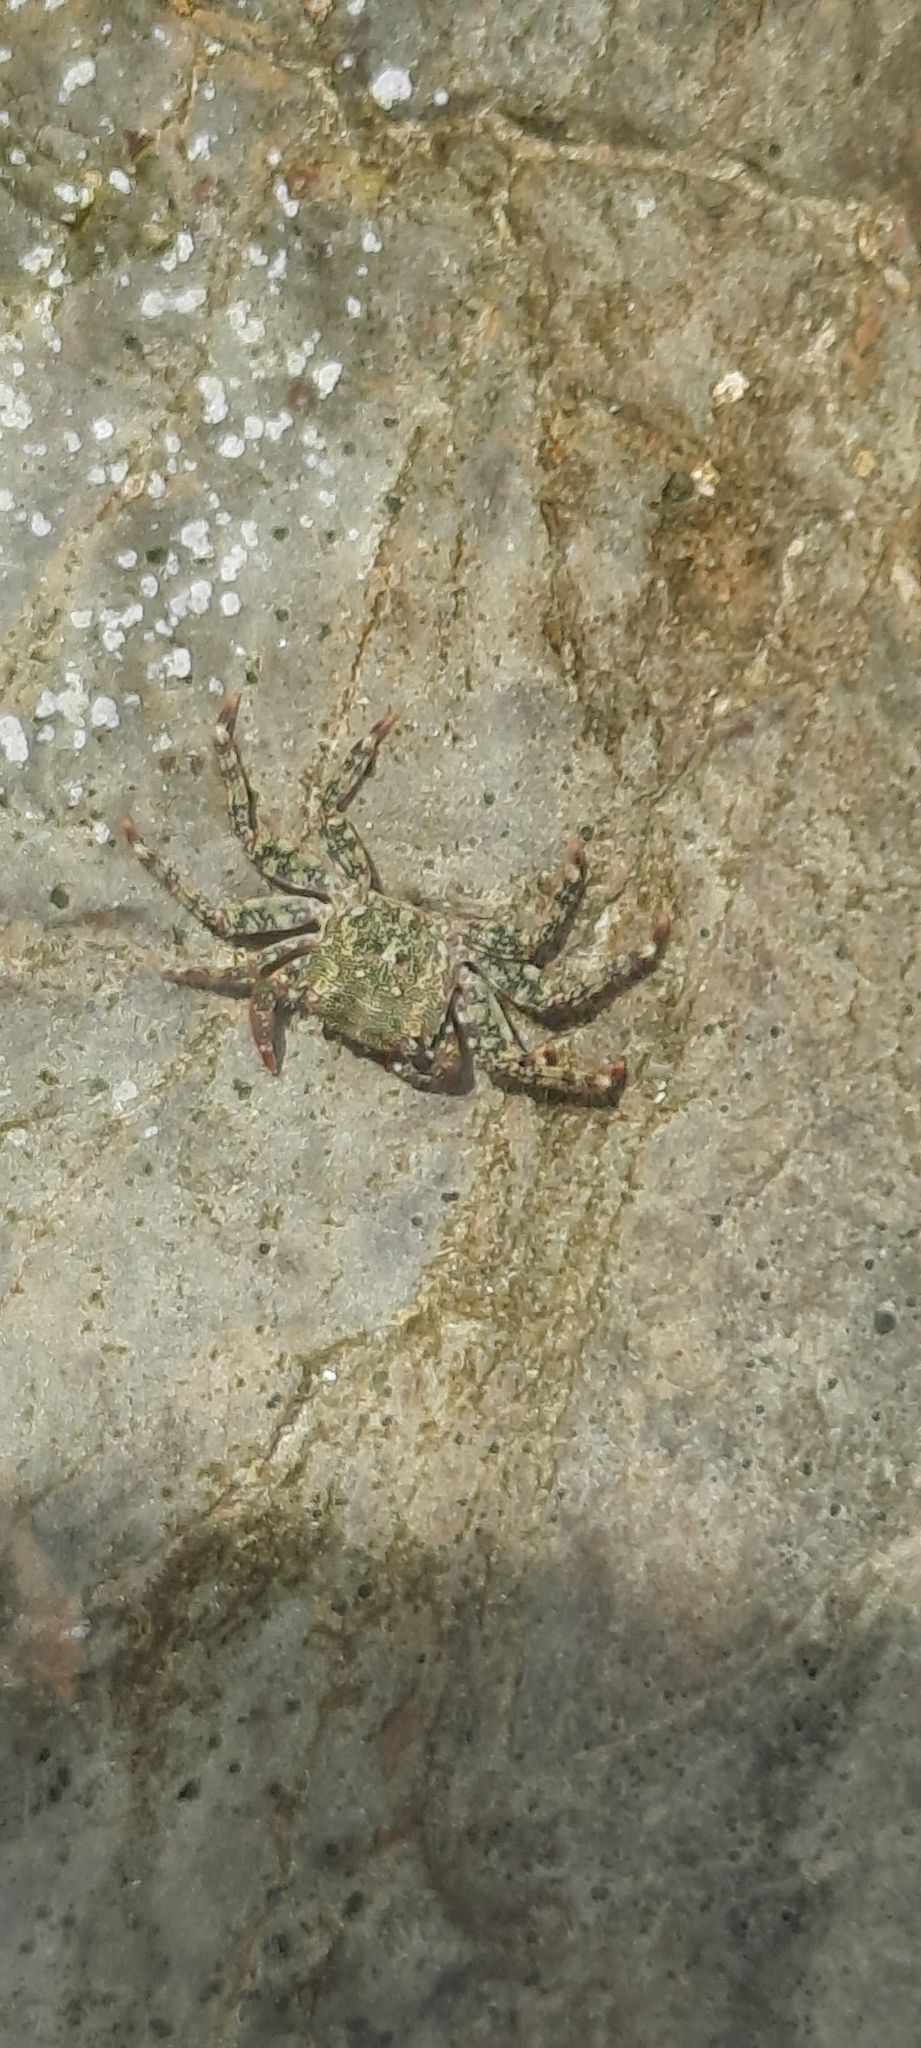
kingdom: Animalia
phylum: Arthropoda
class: Malacostraca
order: Decapoda
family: Grapsidae
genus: Pachygrapsus
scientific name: Pachygrapsus marmoratus
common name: Marbled rock crab
